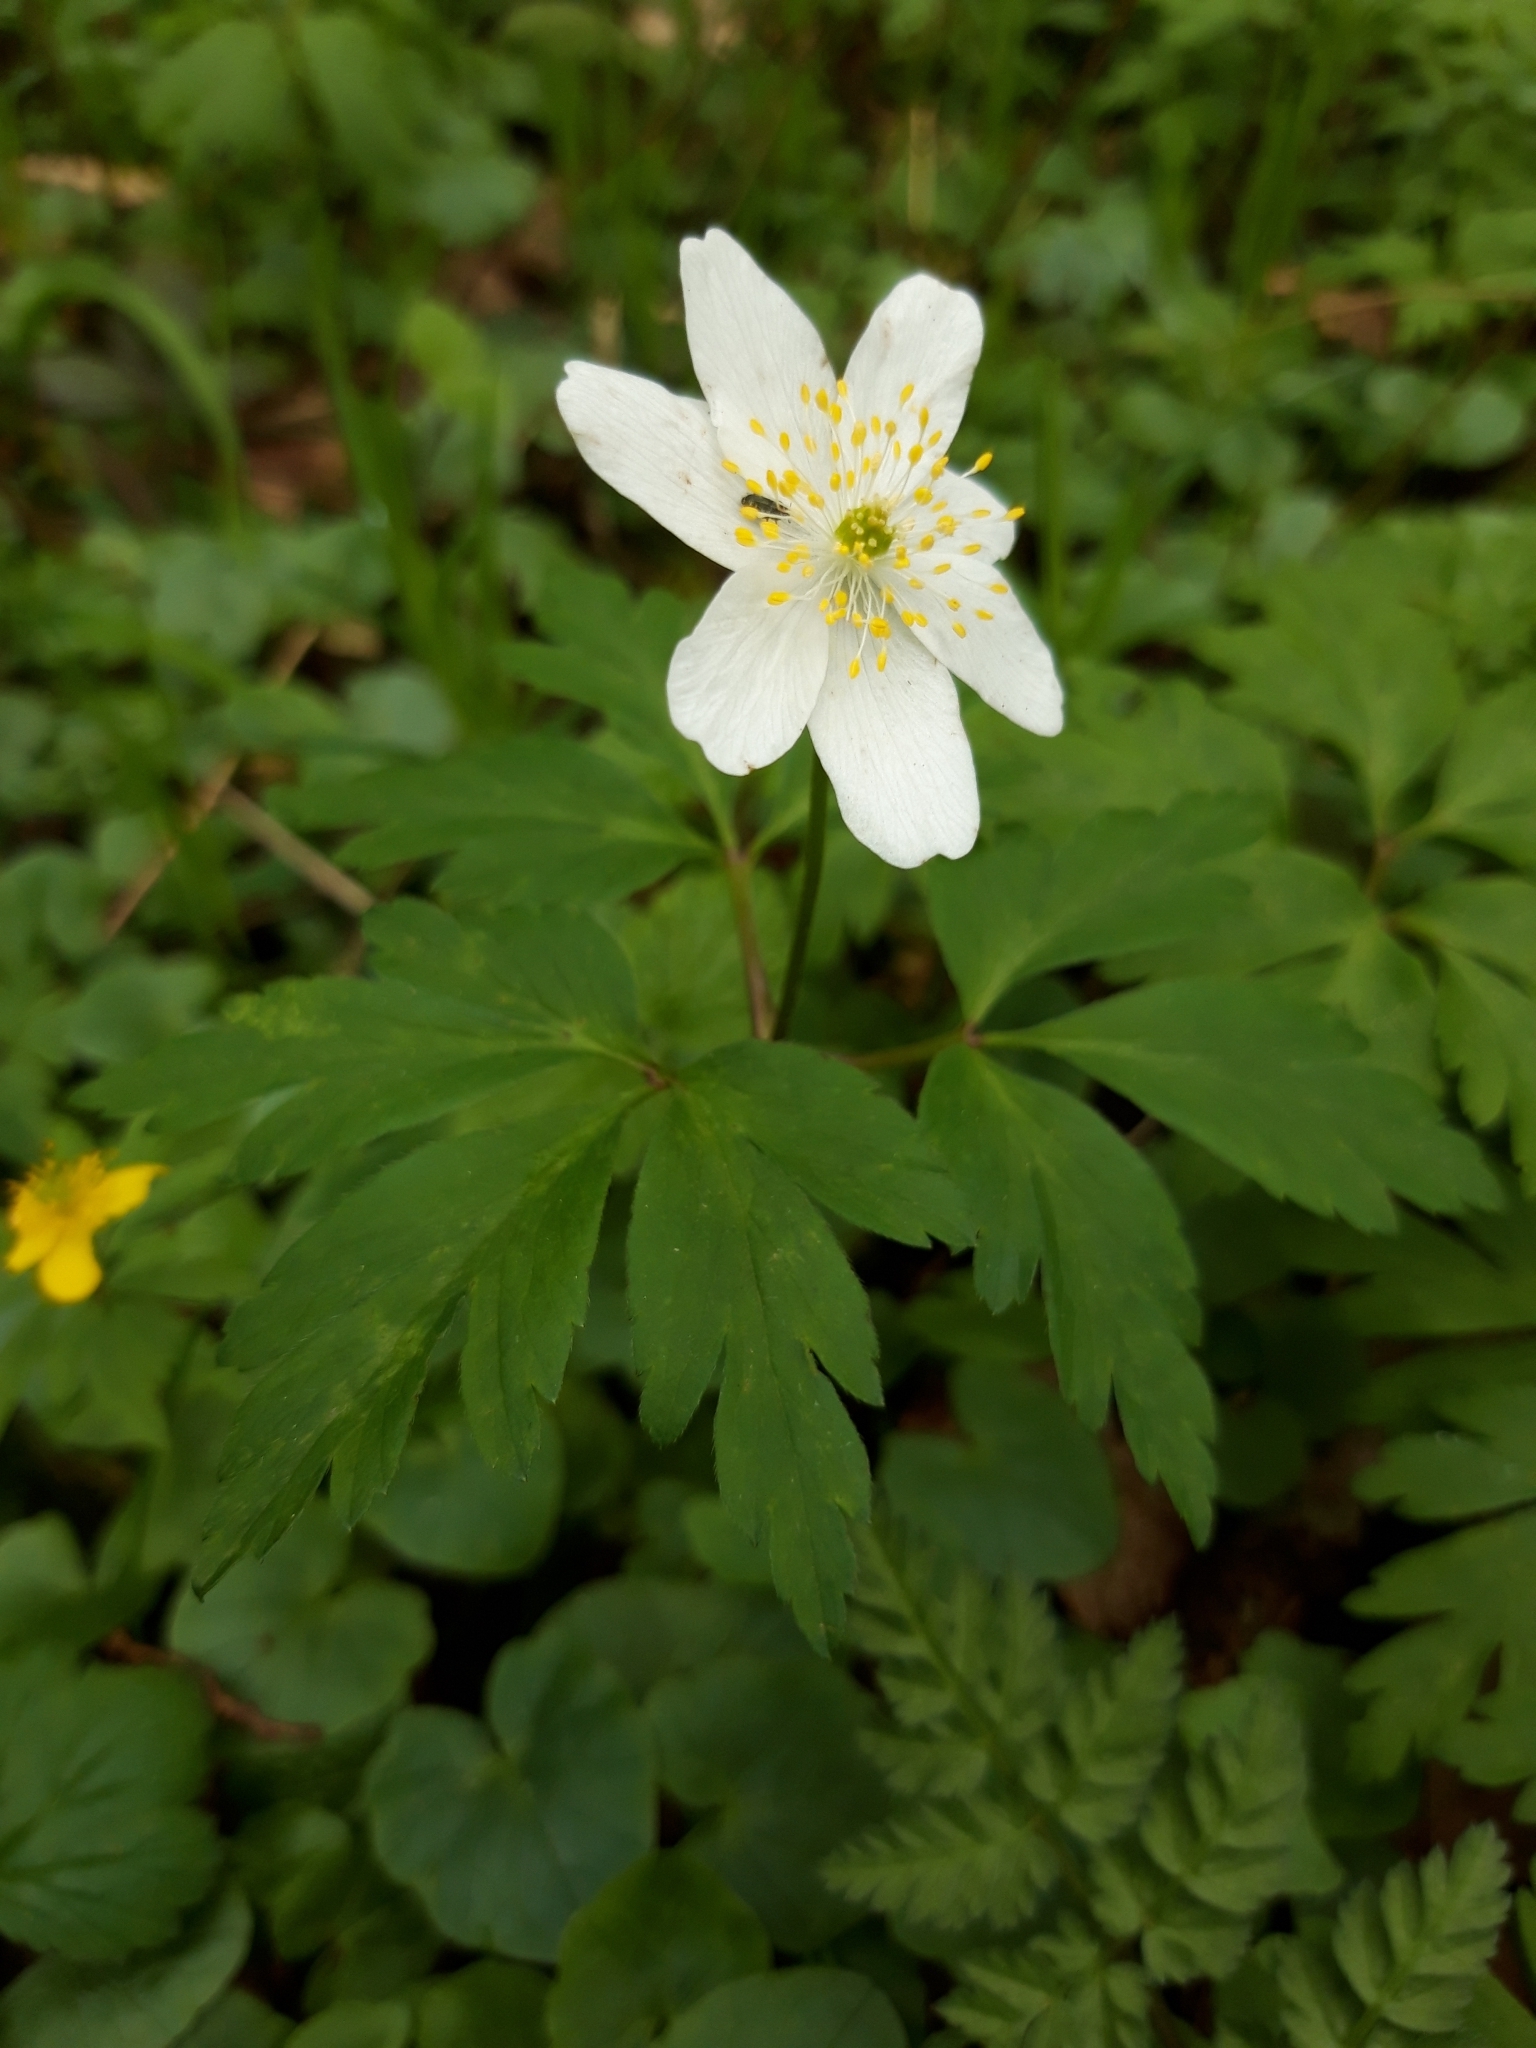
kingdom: Plantae
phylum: Tracheophyta
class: Magnoliopsida
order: Ranunculales
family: Ranunculaceae
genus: Anemone
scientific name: Anemone nemorosa
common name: Wood anemone
